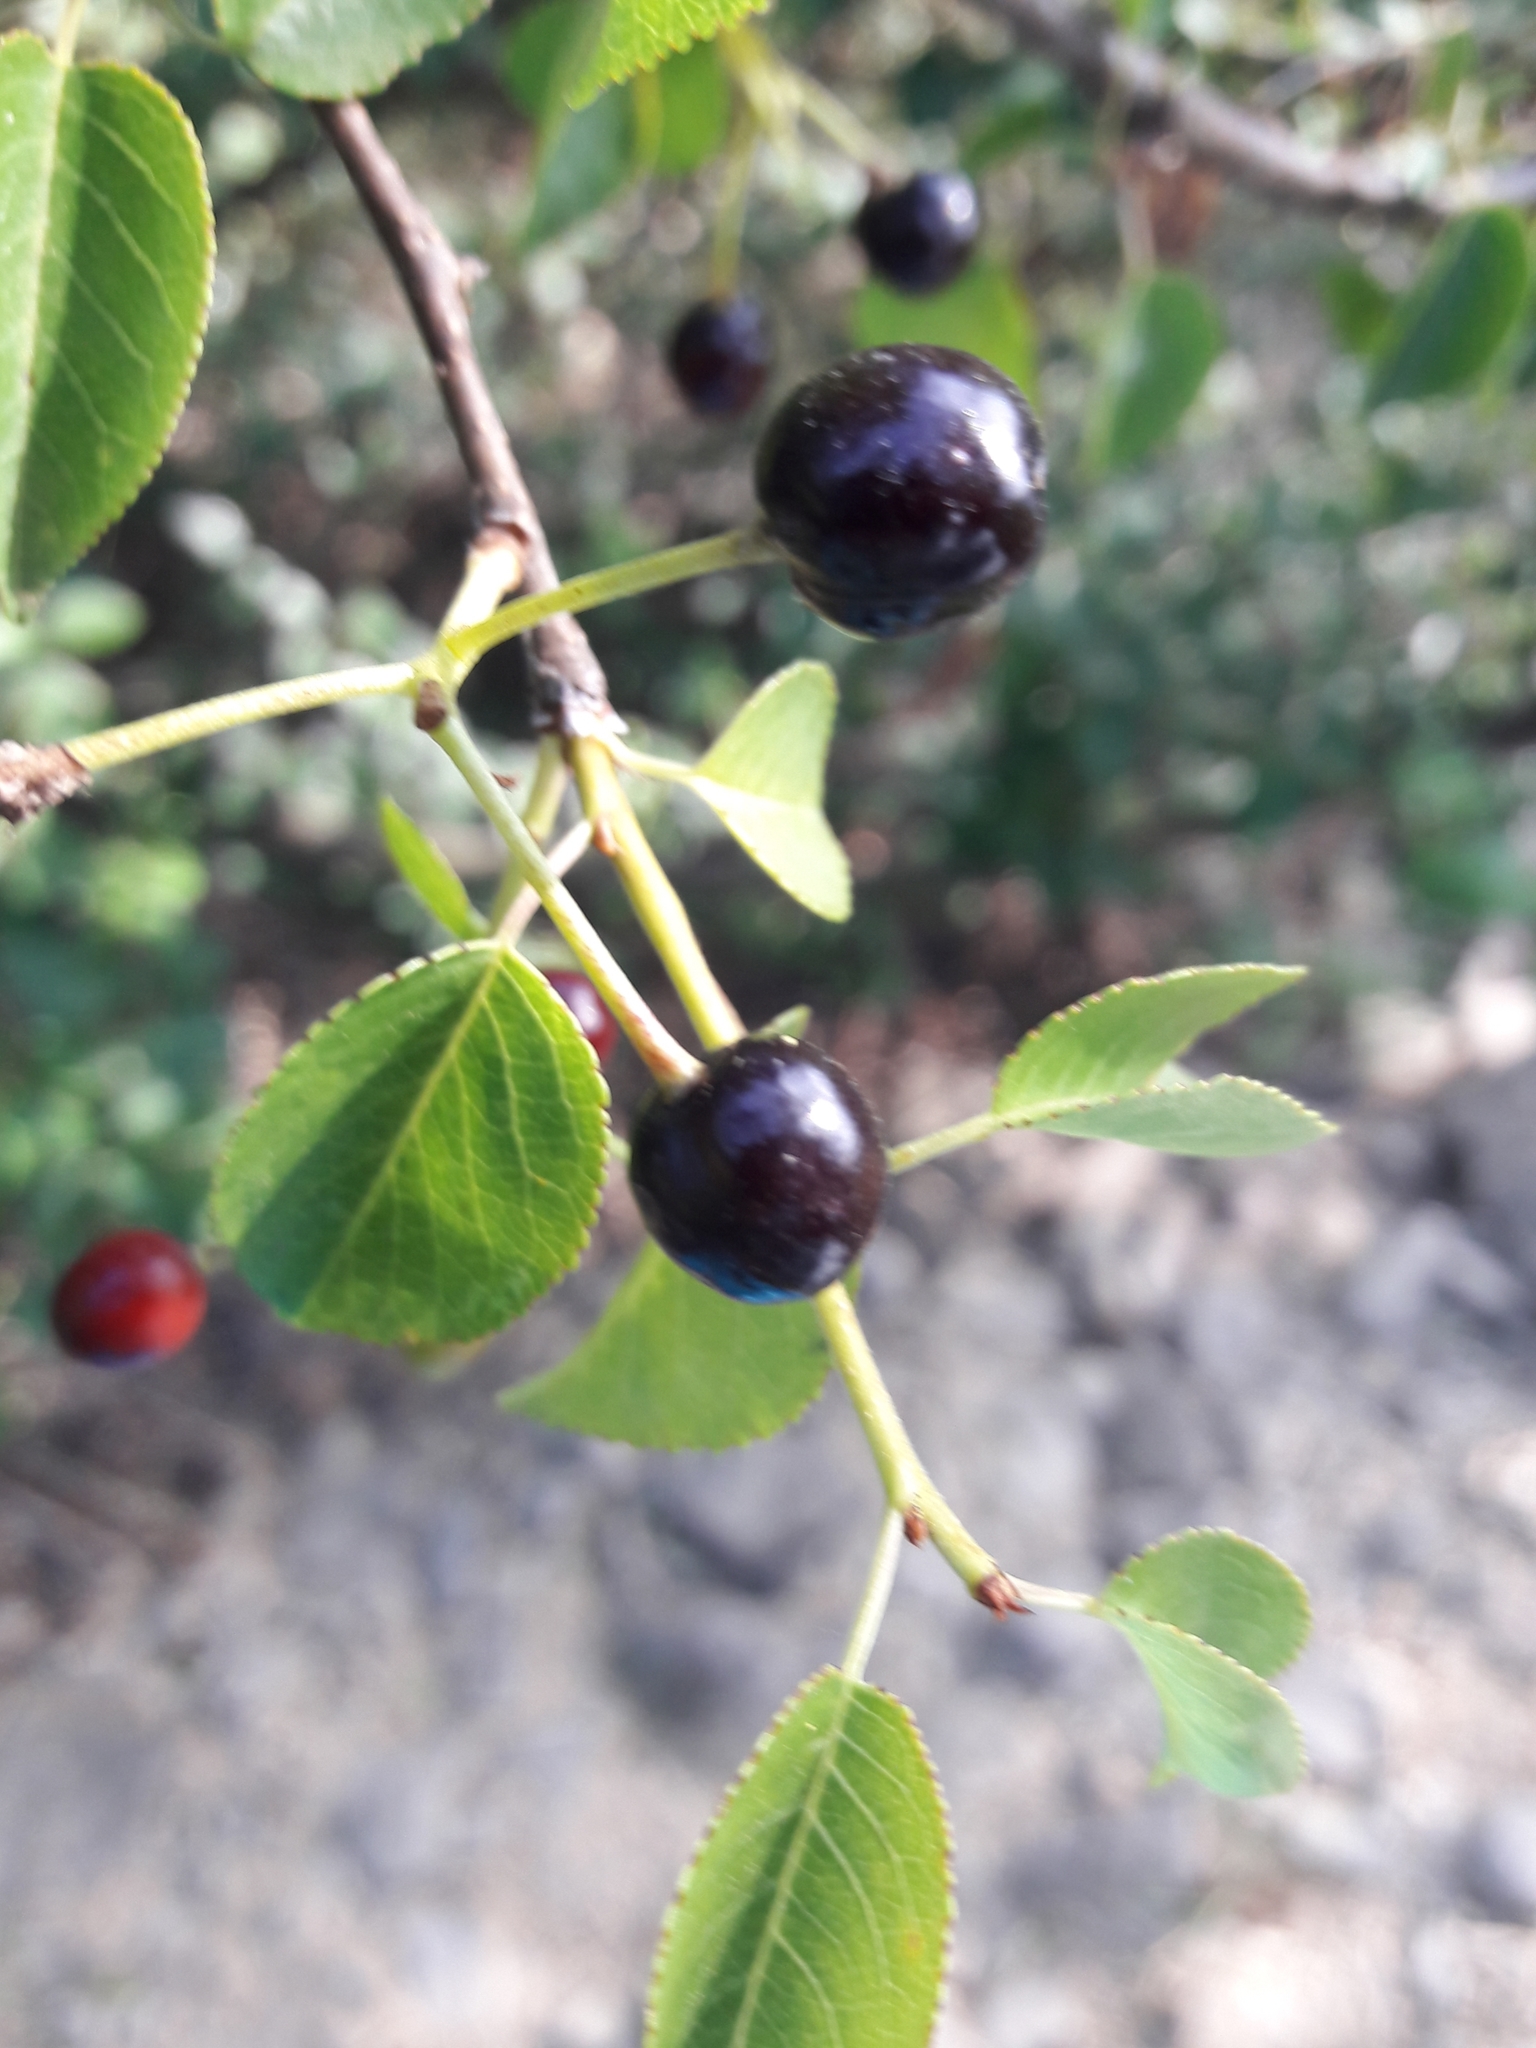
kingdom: Plantae
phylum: Tracheophyta
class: Magnoliopsida
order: Rosales
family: Rosaceae
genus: Prunus
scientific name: Prunus mahaleb
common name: Mahaleb cherry
